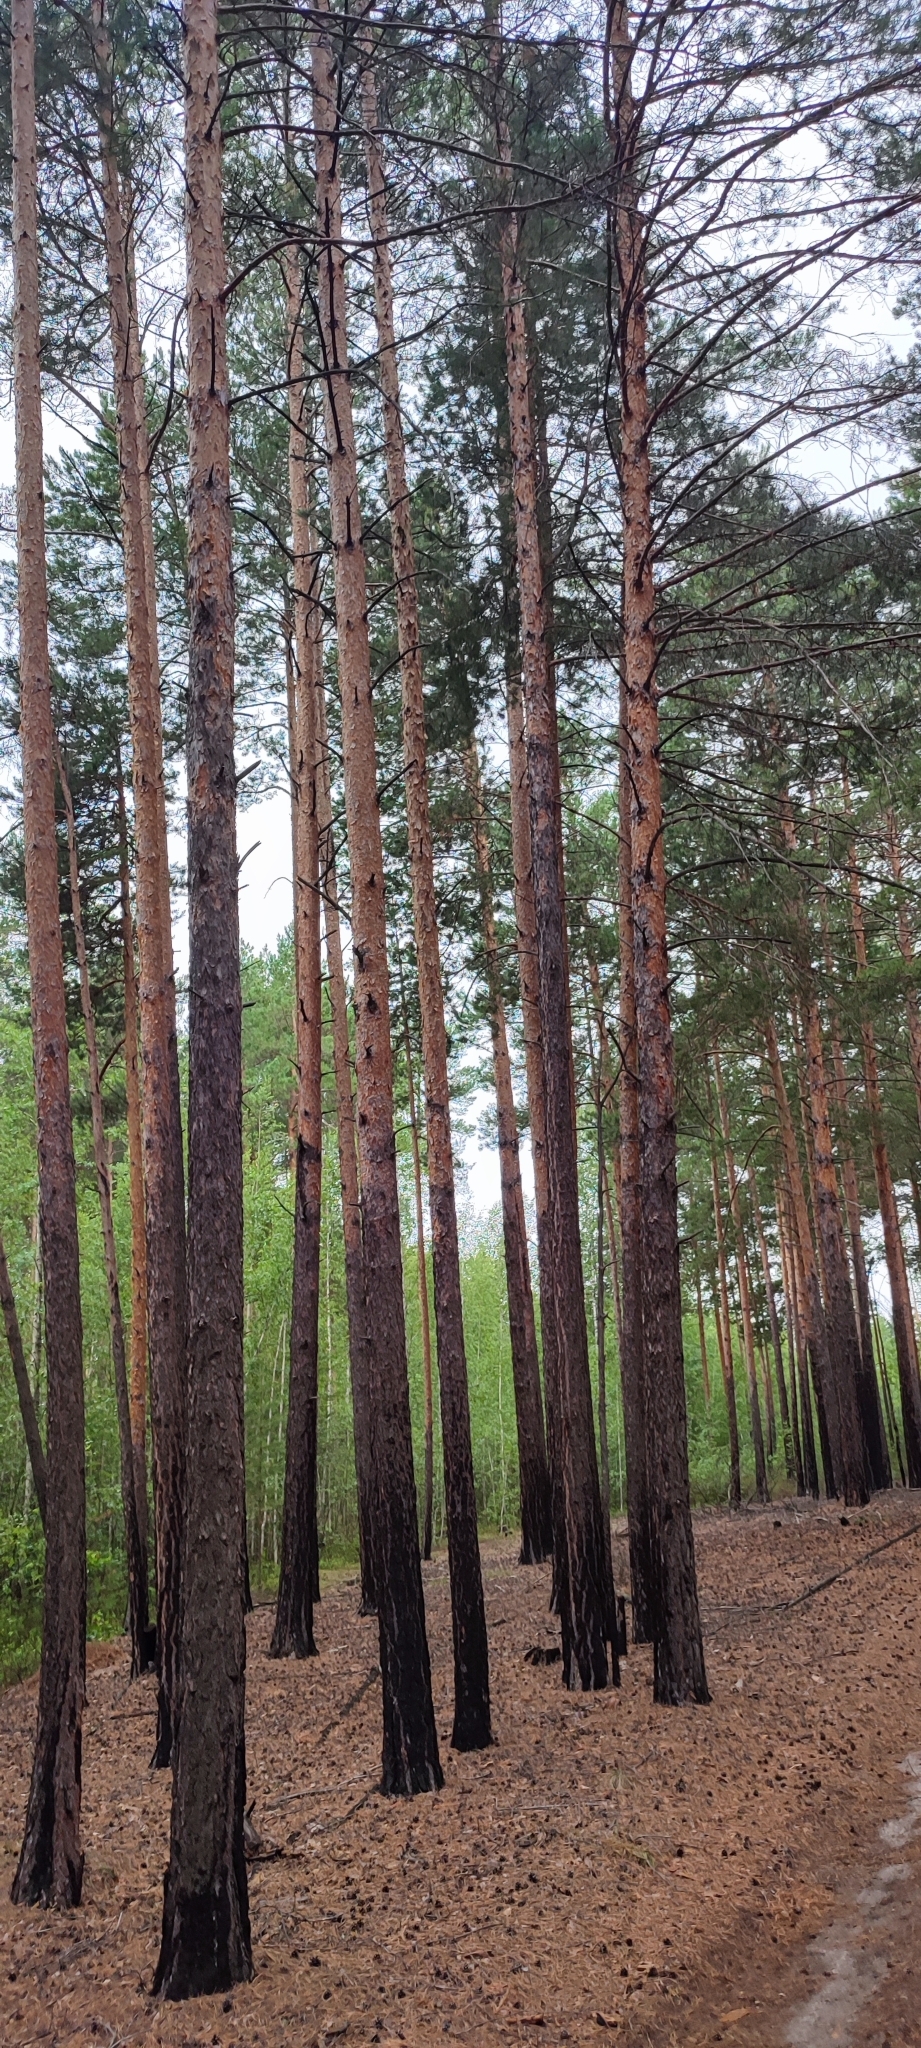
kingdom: Plantae
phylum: Tracheophyta
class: Pinopsida
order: Pinales
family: Pinaceae
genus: Pinus
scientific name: Pinus sylvestris
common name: Scots pine
